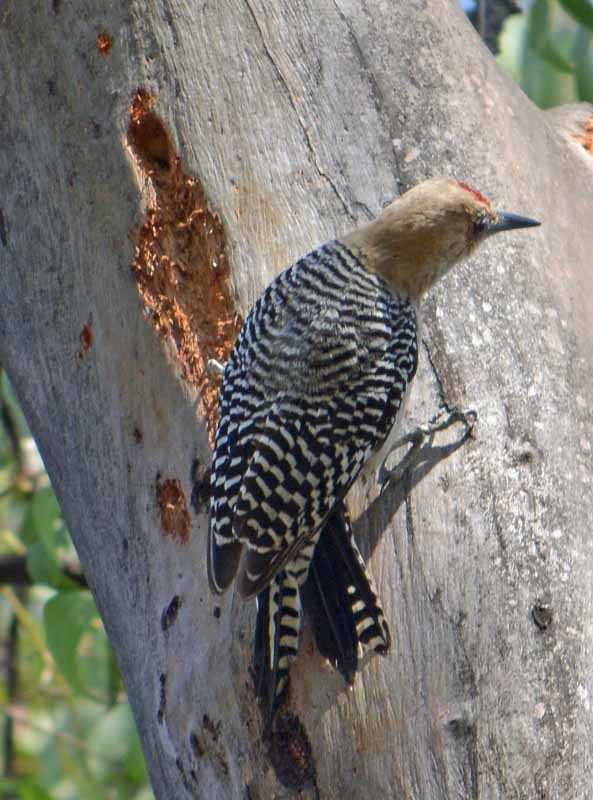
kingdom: Animalia
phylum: Chordata
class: Aves
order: Piciformes
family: Picidae
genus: Melanerpes
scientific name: Melanerpes uropygialis
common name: Gila woodpecker
